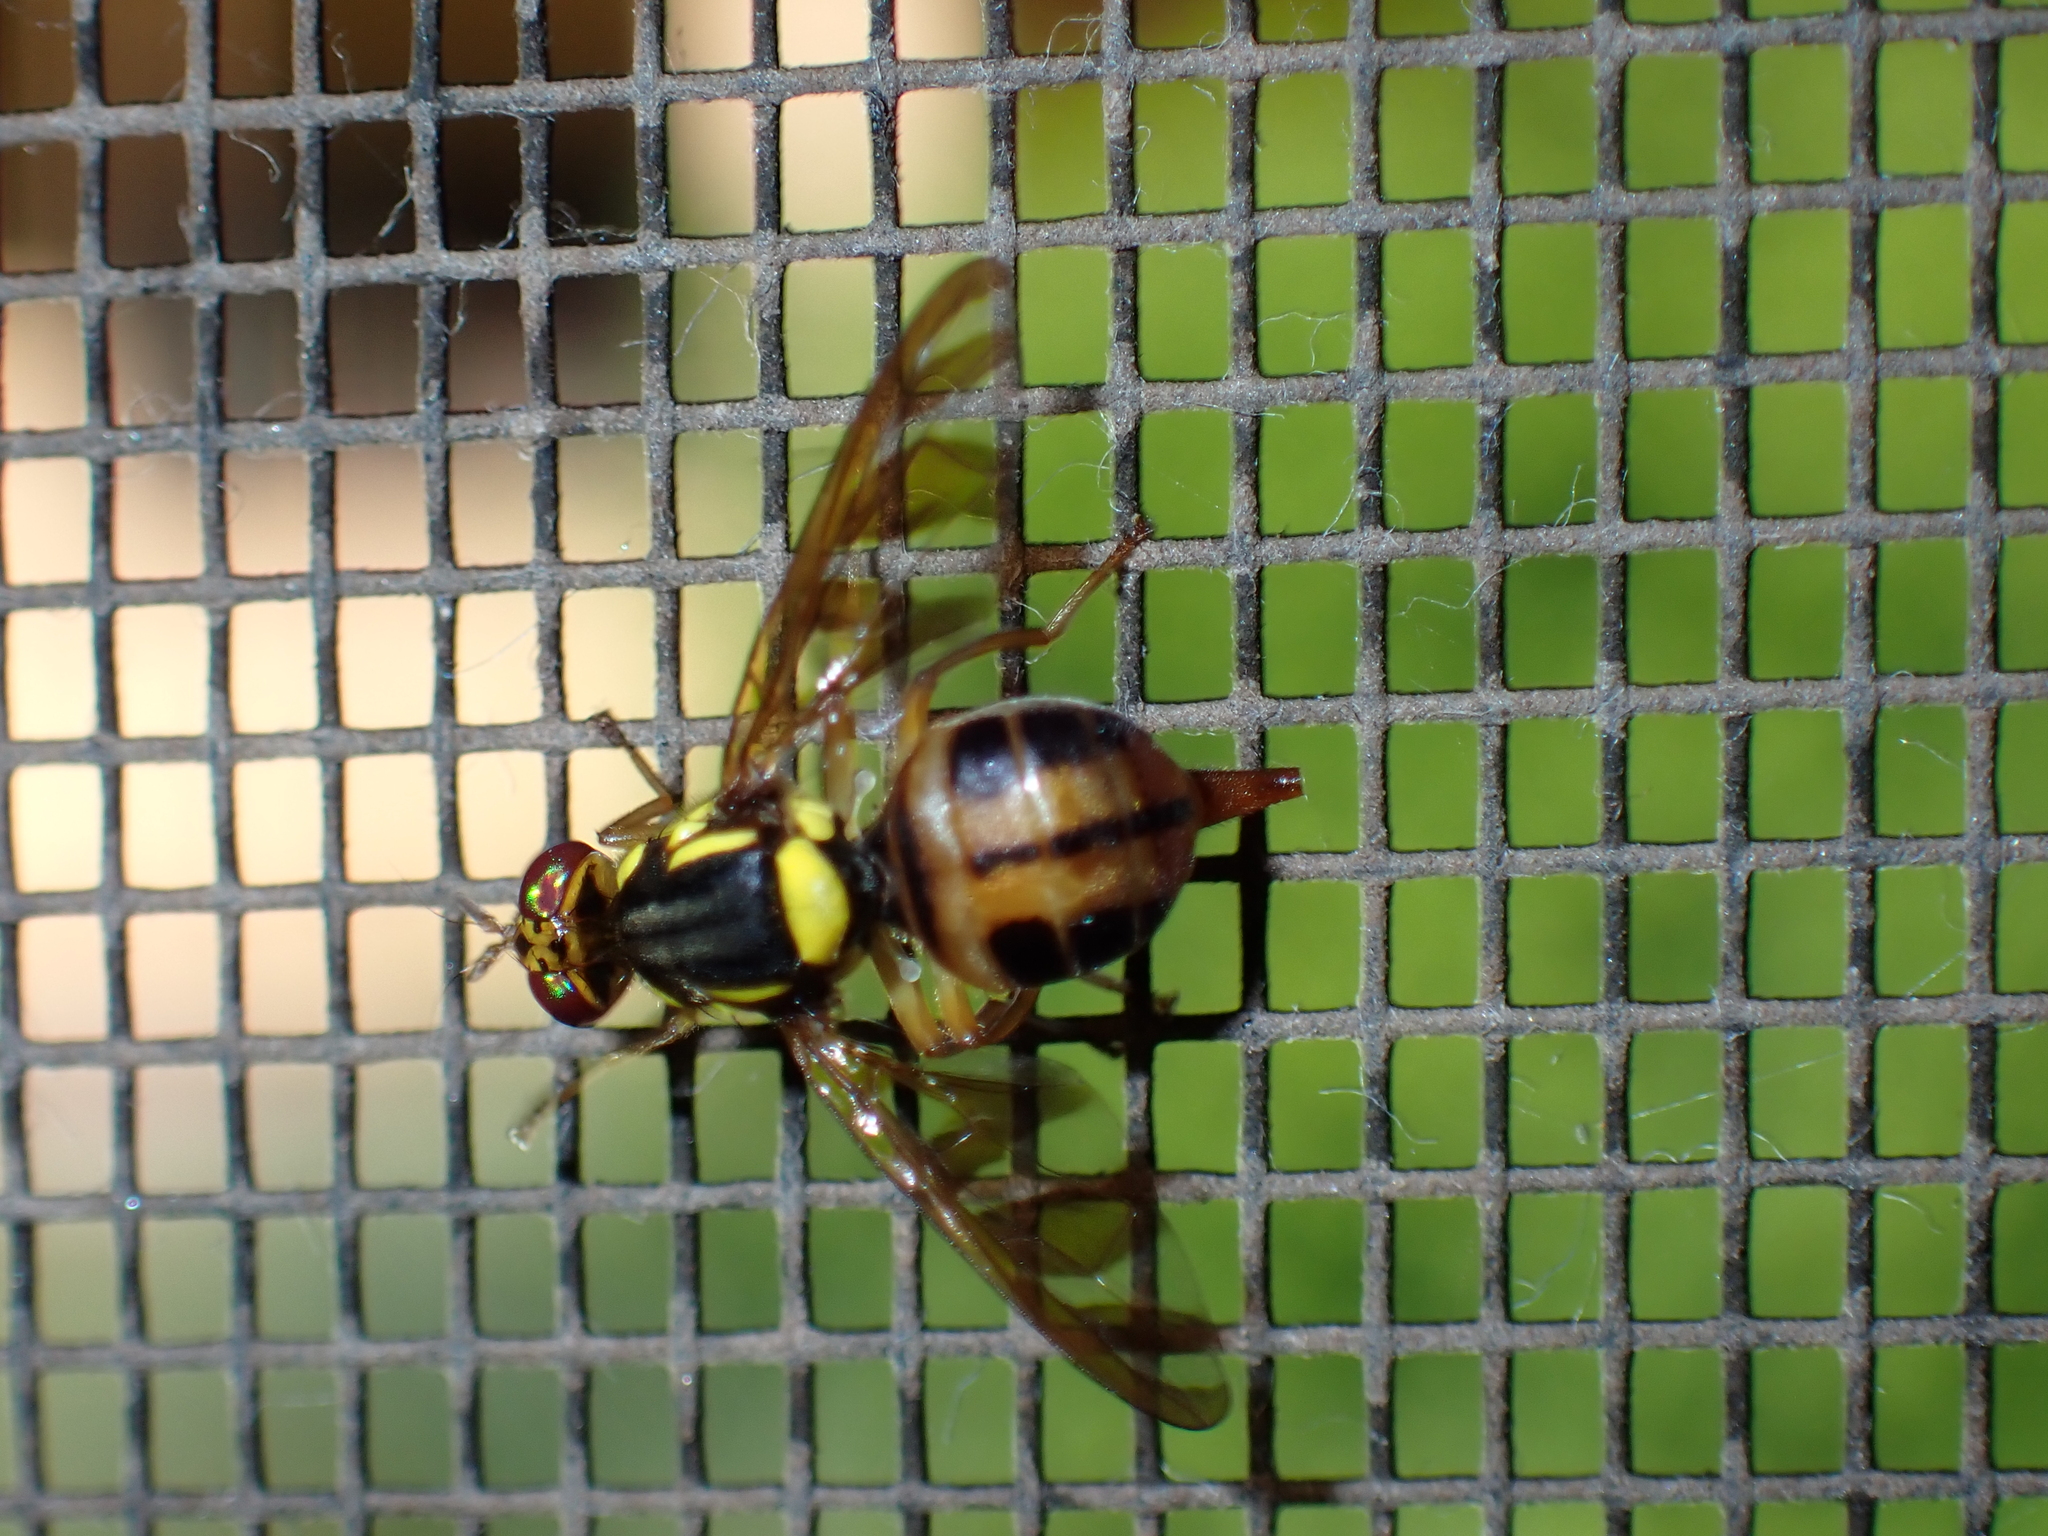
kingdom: Animalia
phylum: Arthropoda
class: Insecta
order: Diptera
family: Tephritidae
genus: Bactrocera
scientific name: Bactrocera umbrosa
